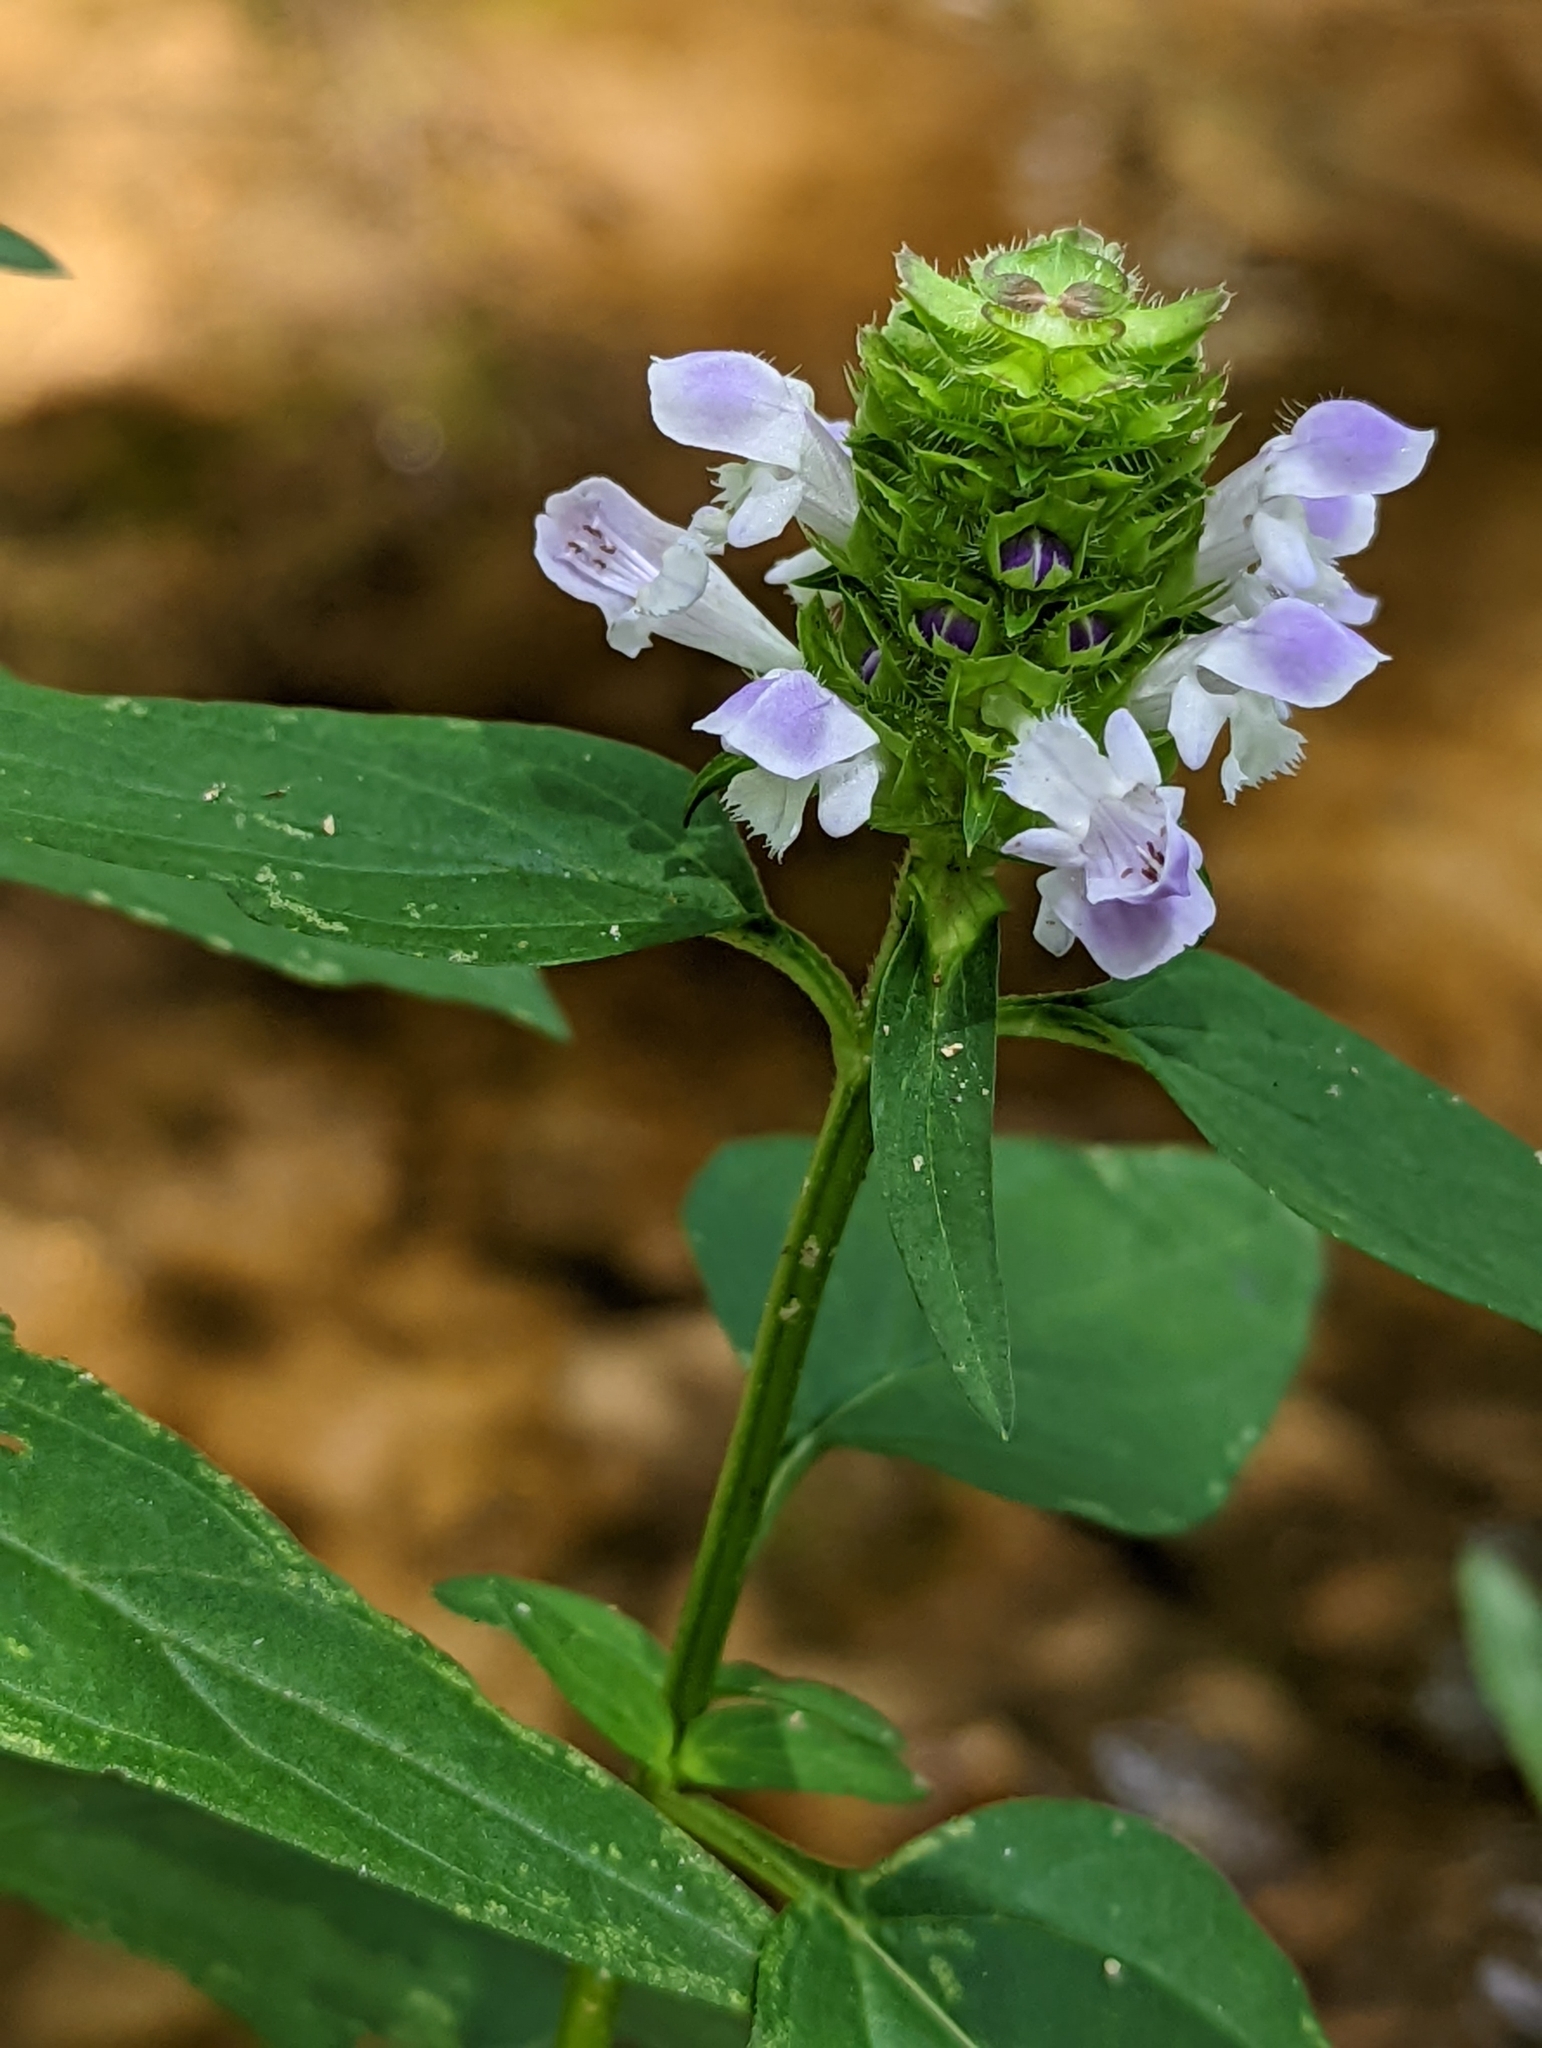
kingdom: Plantae
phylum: Tracheophyta
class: Magnoliopsida
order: Lamiales
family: Lamiaceae
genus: Prunella
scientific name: Prunella vulgaris
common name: Heal-all
